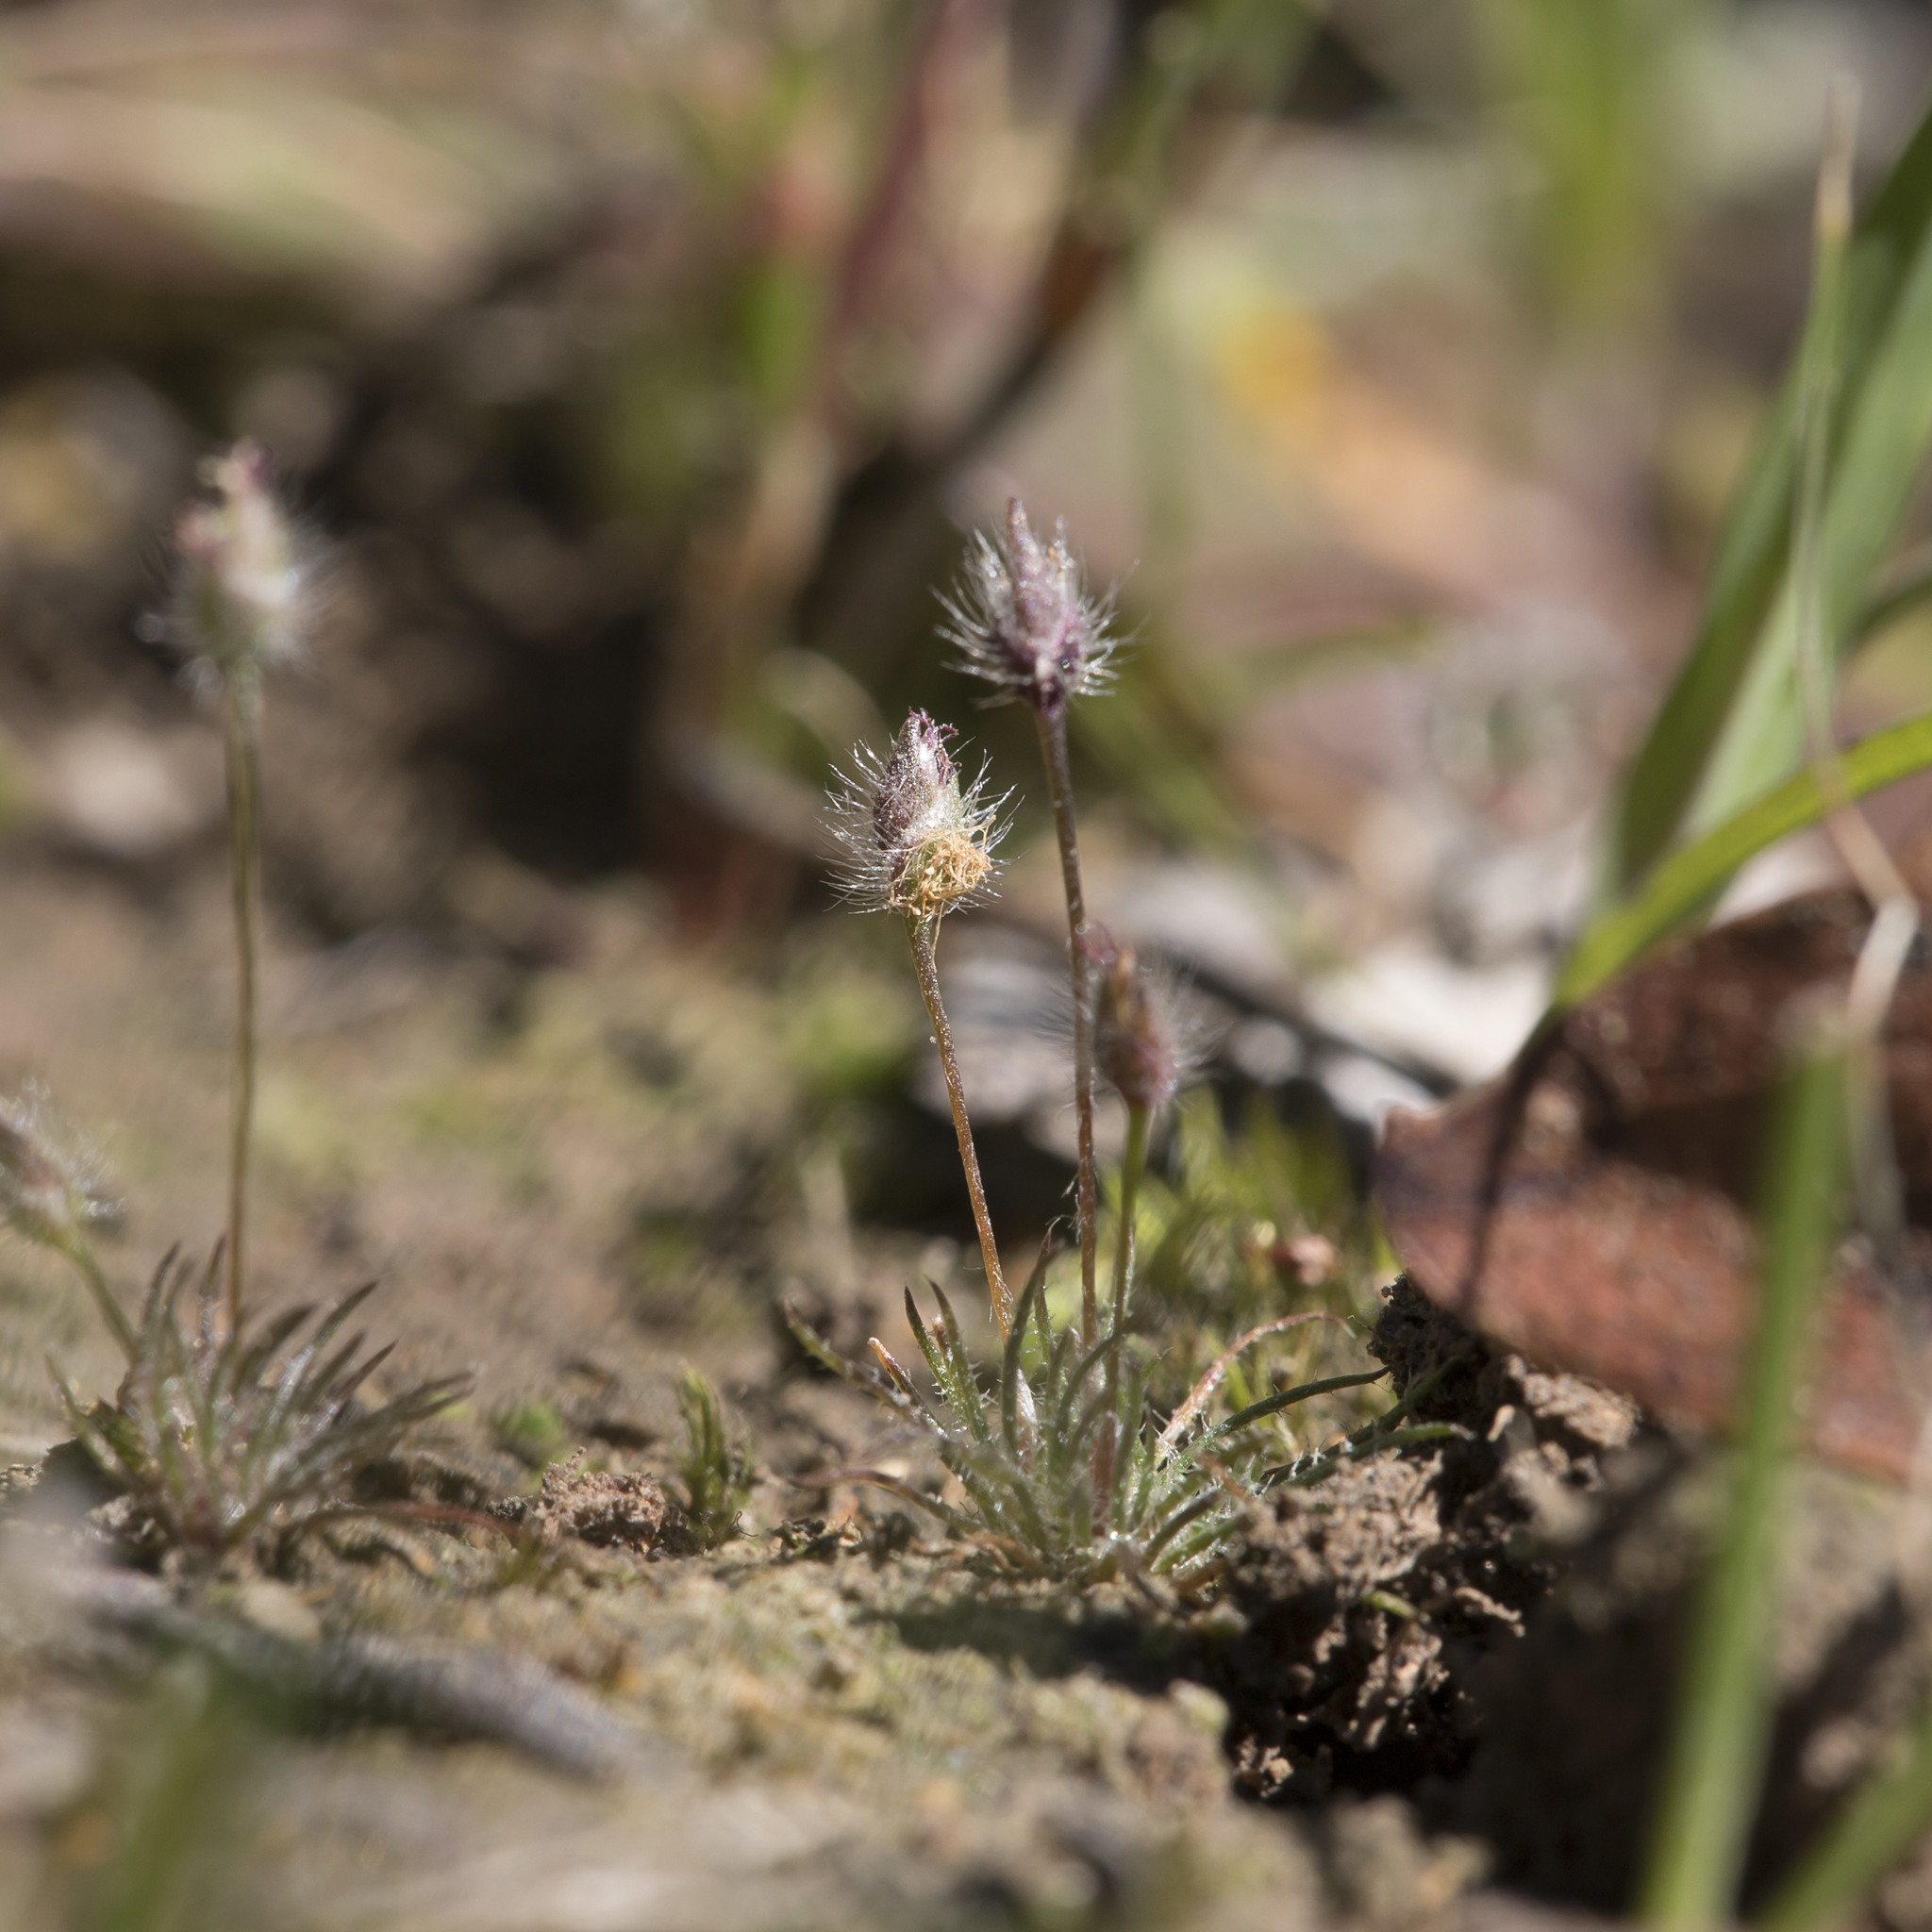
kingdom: Plantae
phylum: Tracheophyta
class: Liliopsida
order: Poales
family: Restionaceae
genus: Centrolepis
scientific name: Centrolepis strigosa
